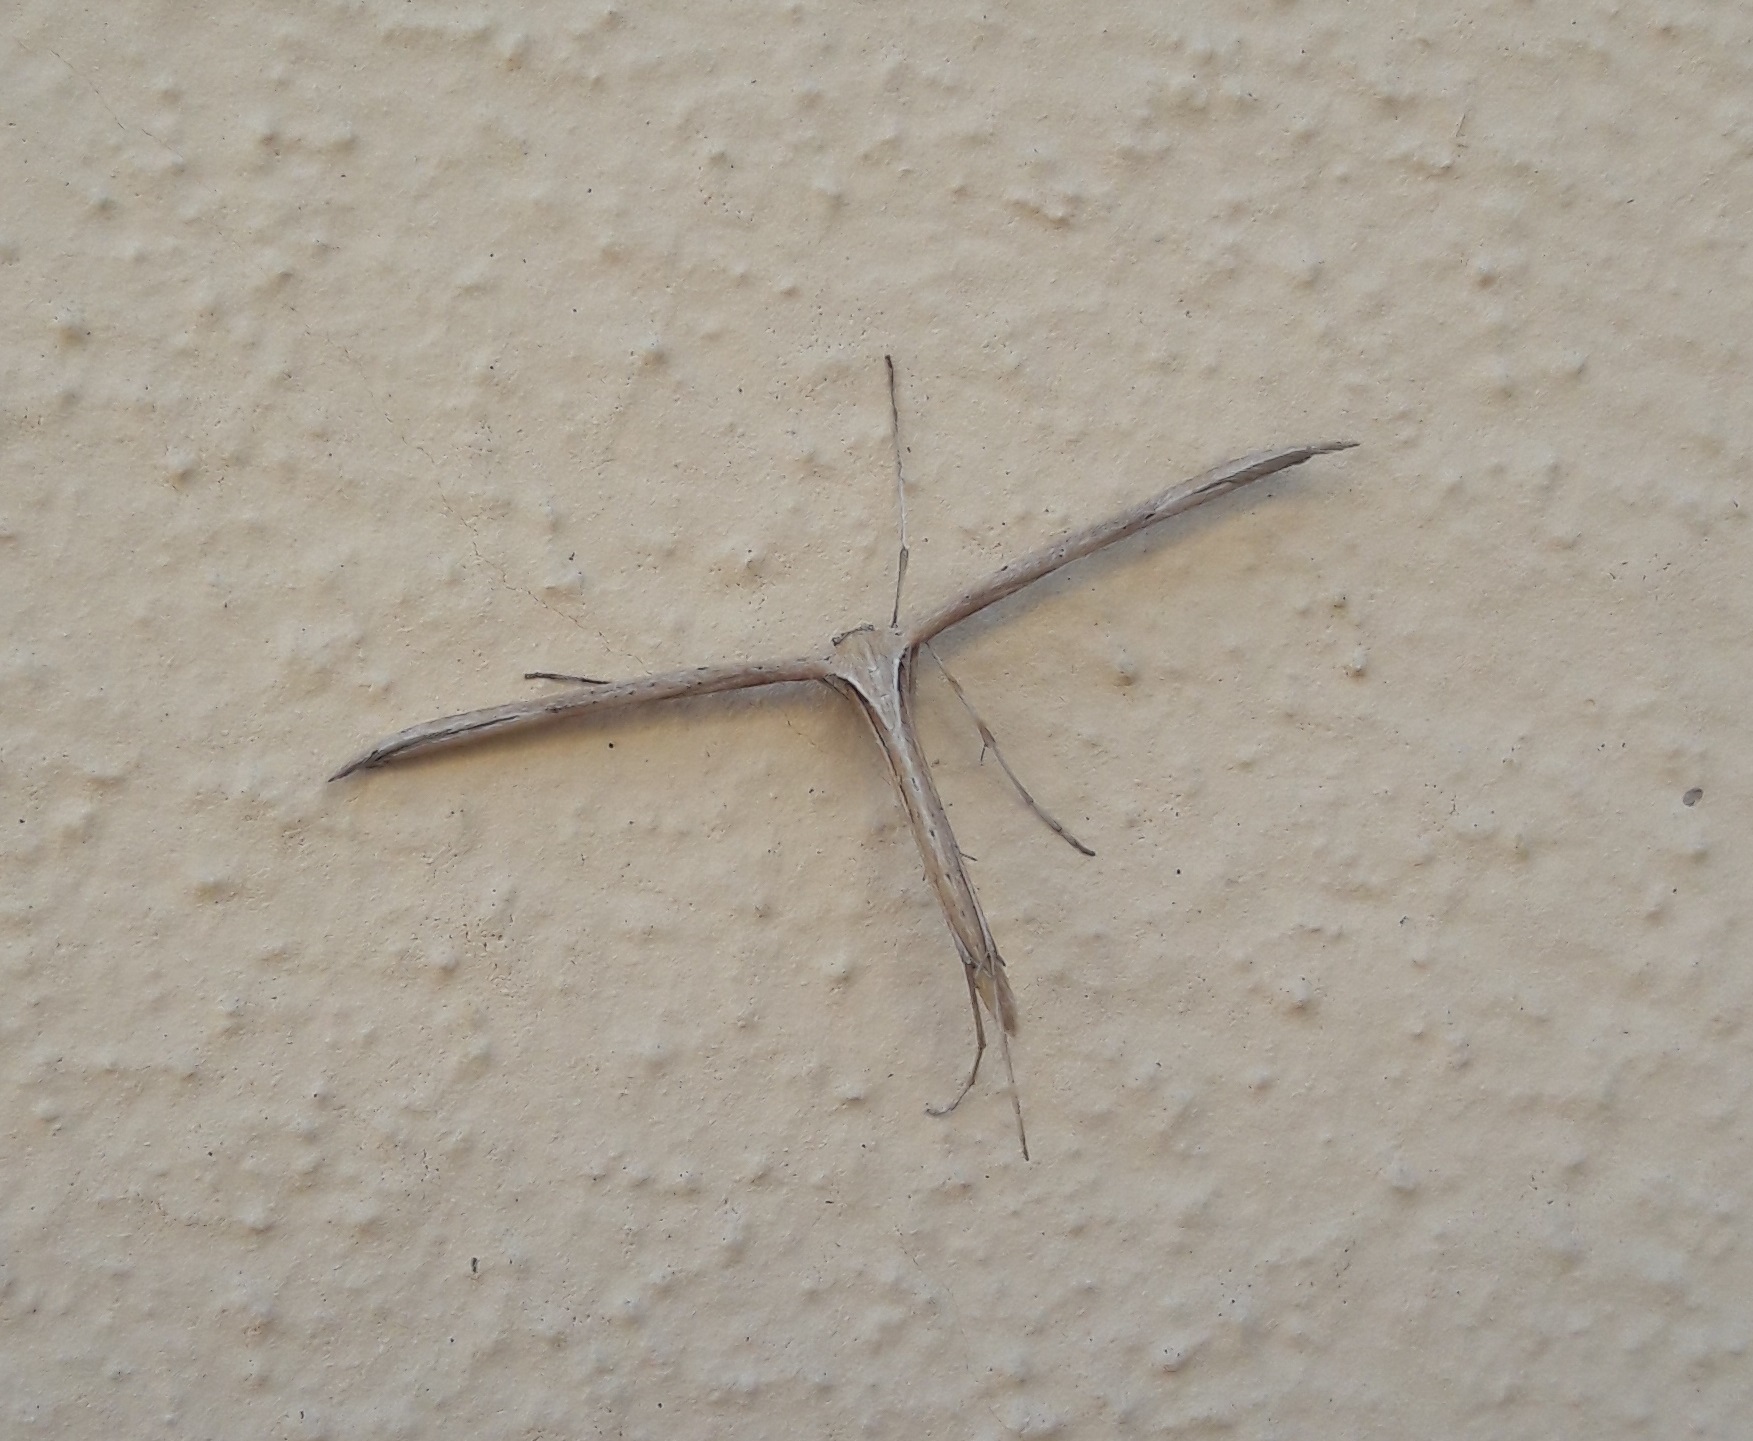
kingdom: Animalia
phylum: Arthropoda
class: Insecta
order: Lepidoptera
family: Pterophoridae
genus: Emmelina
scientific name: Emmelina monodactyla
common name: Common plume
